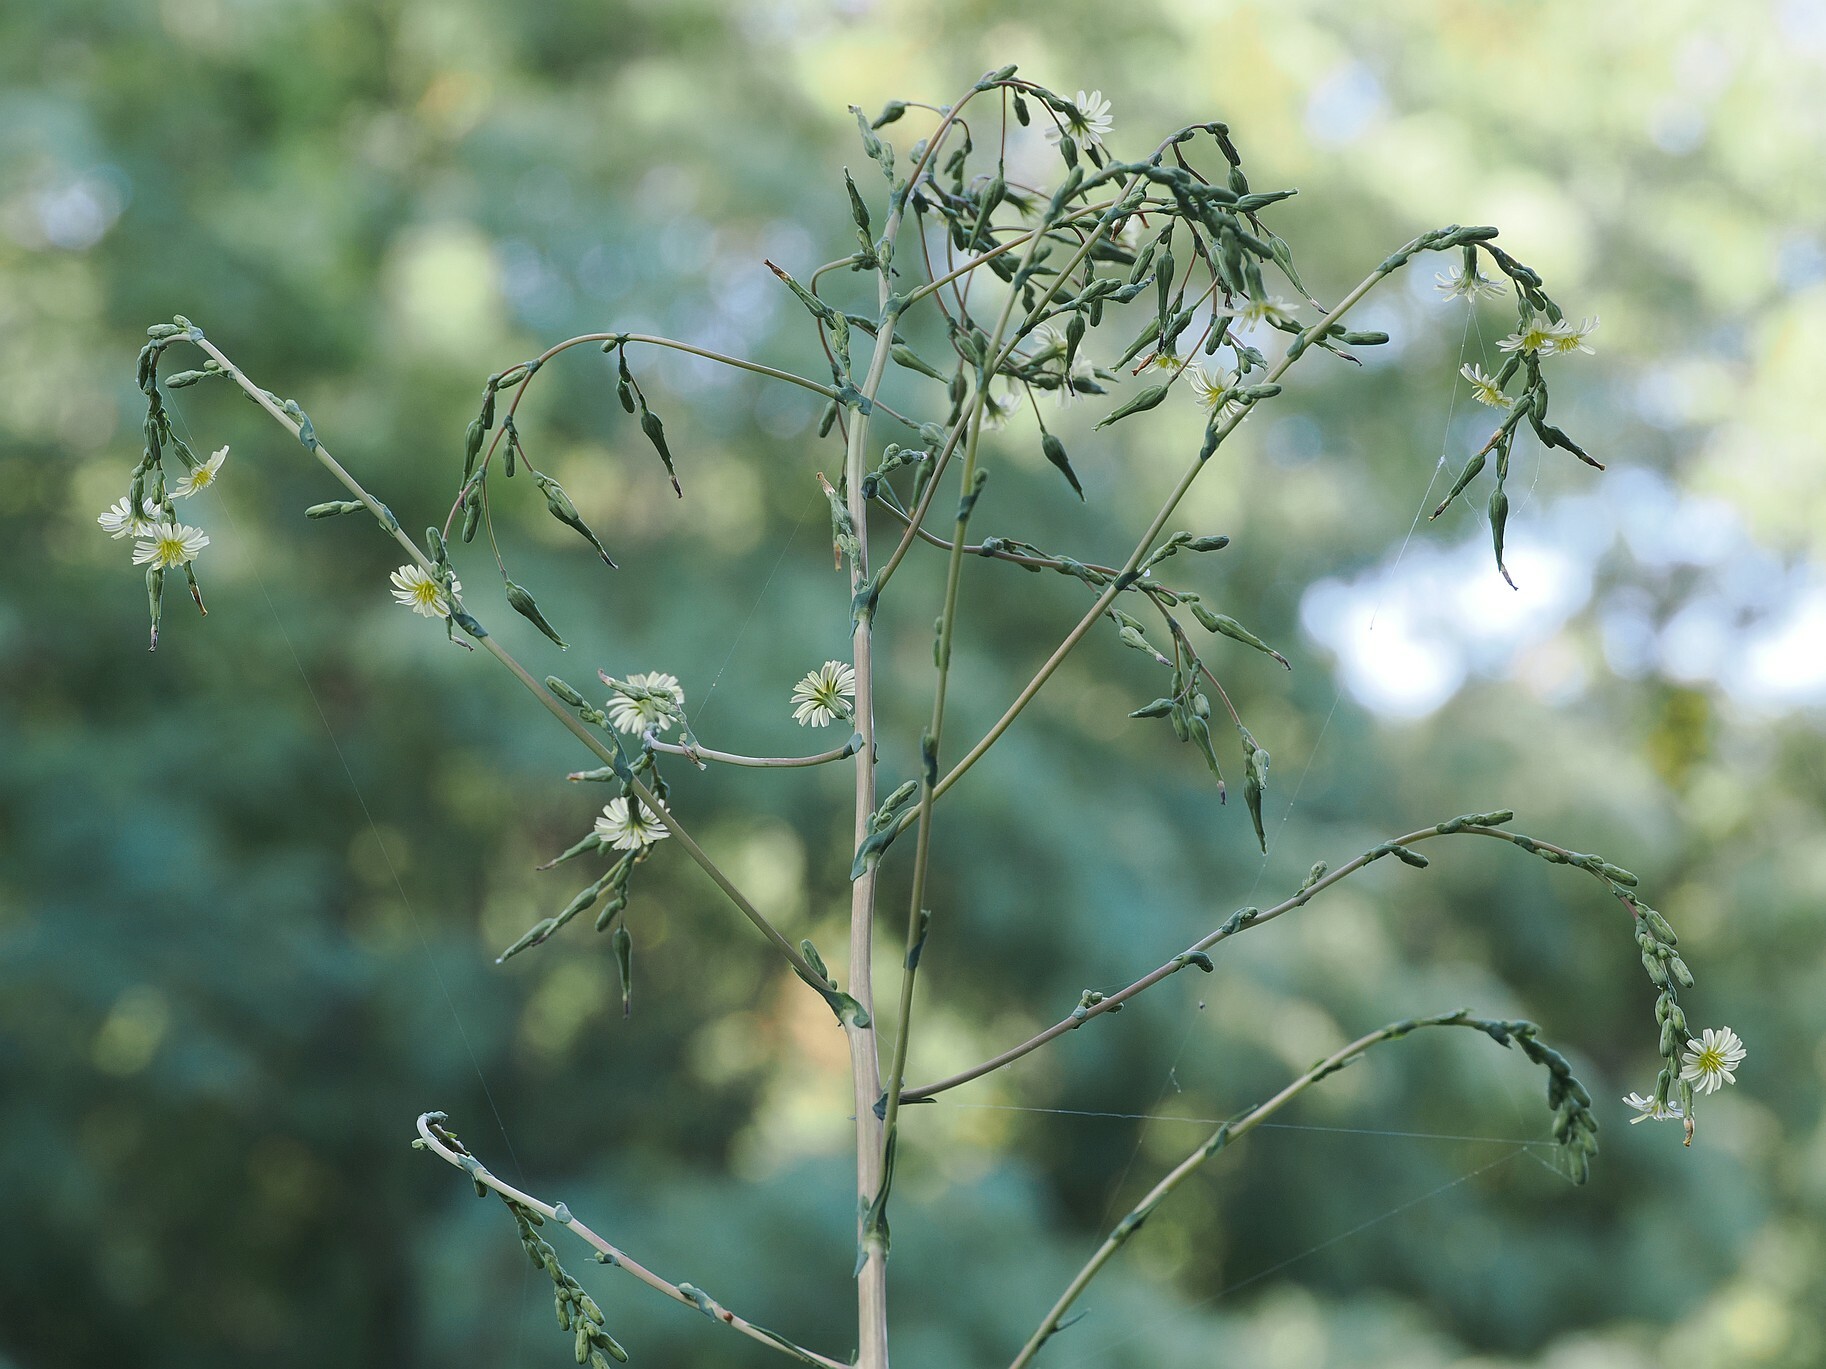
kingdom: Plantae
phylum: Tracheophyta
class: Magnoliopsida
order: Asterales
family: Asteraceae
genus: Lactuca
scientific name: Lactuca serriola
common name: Prickly lettuce
